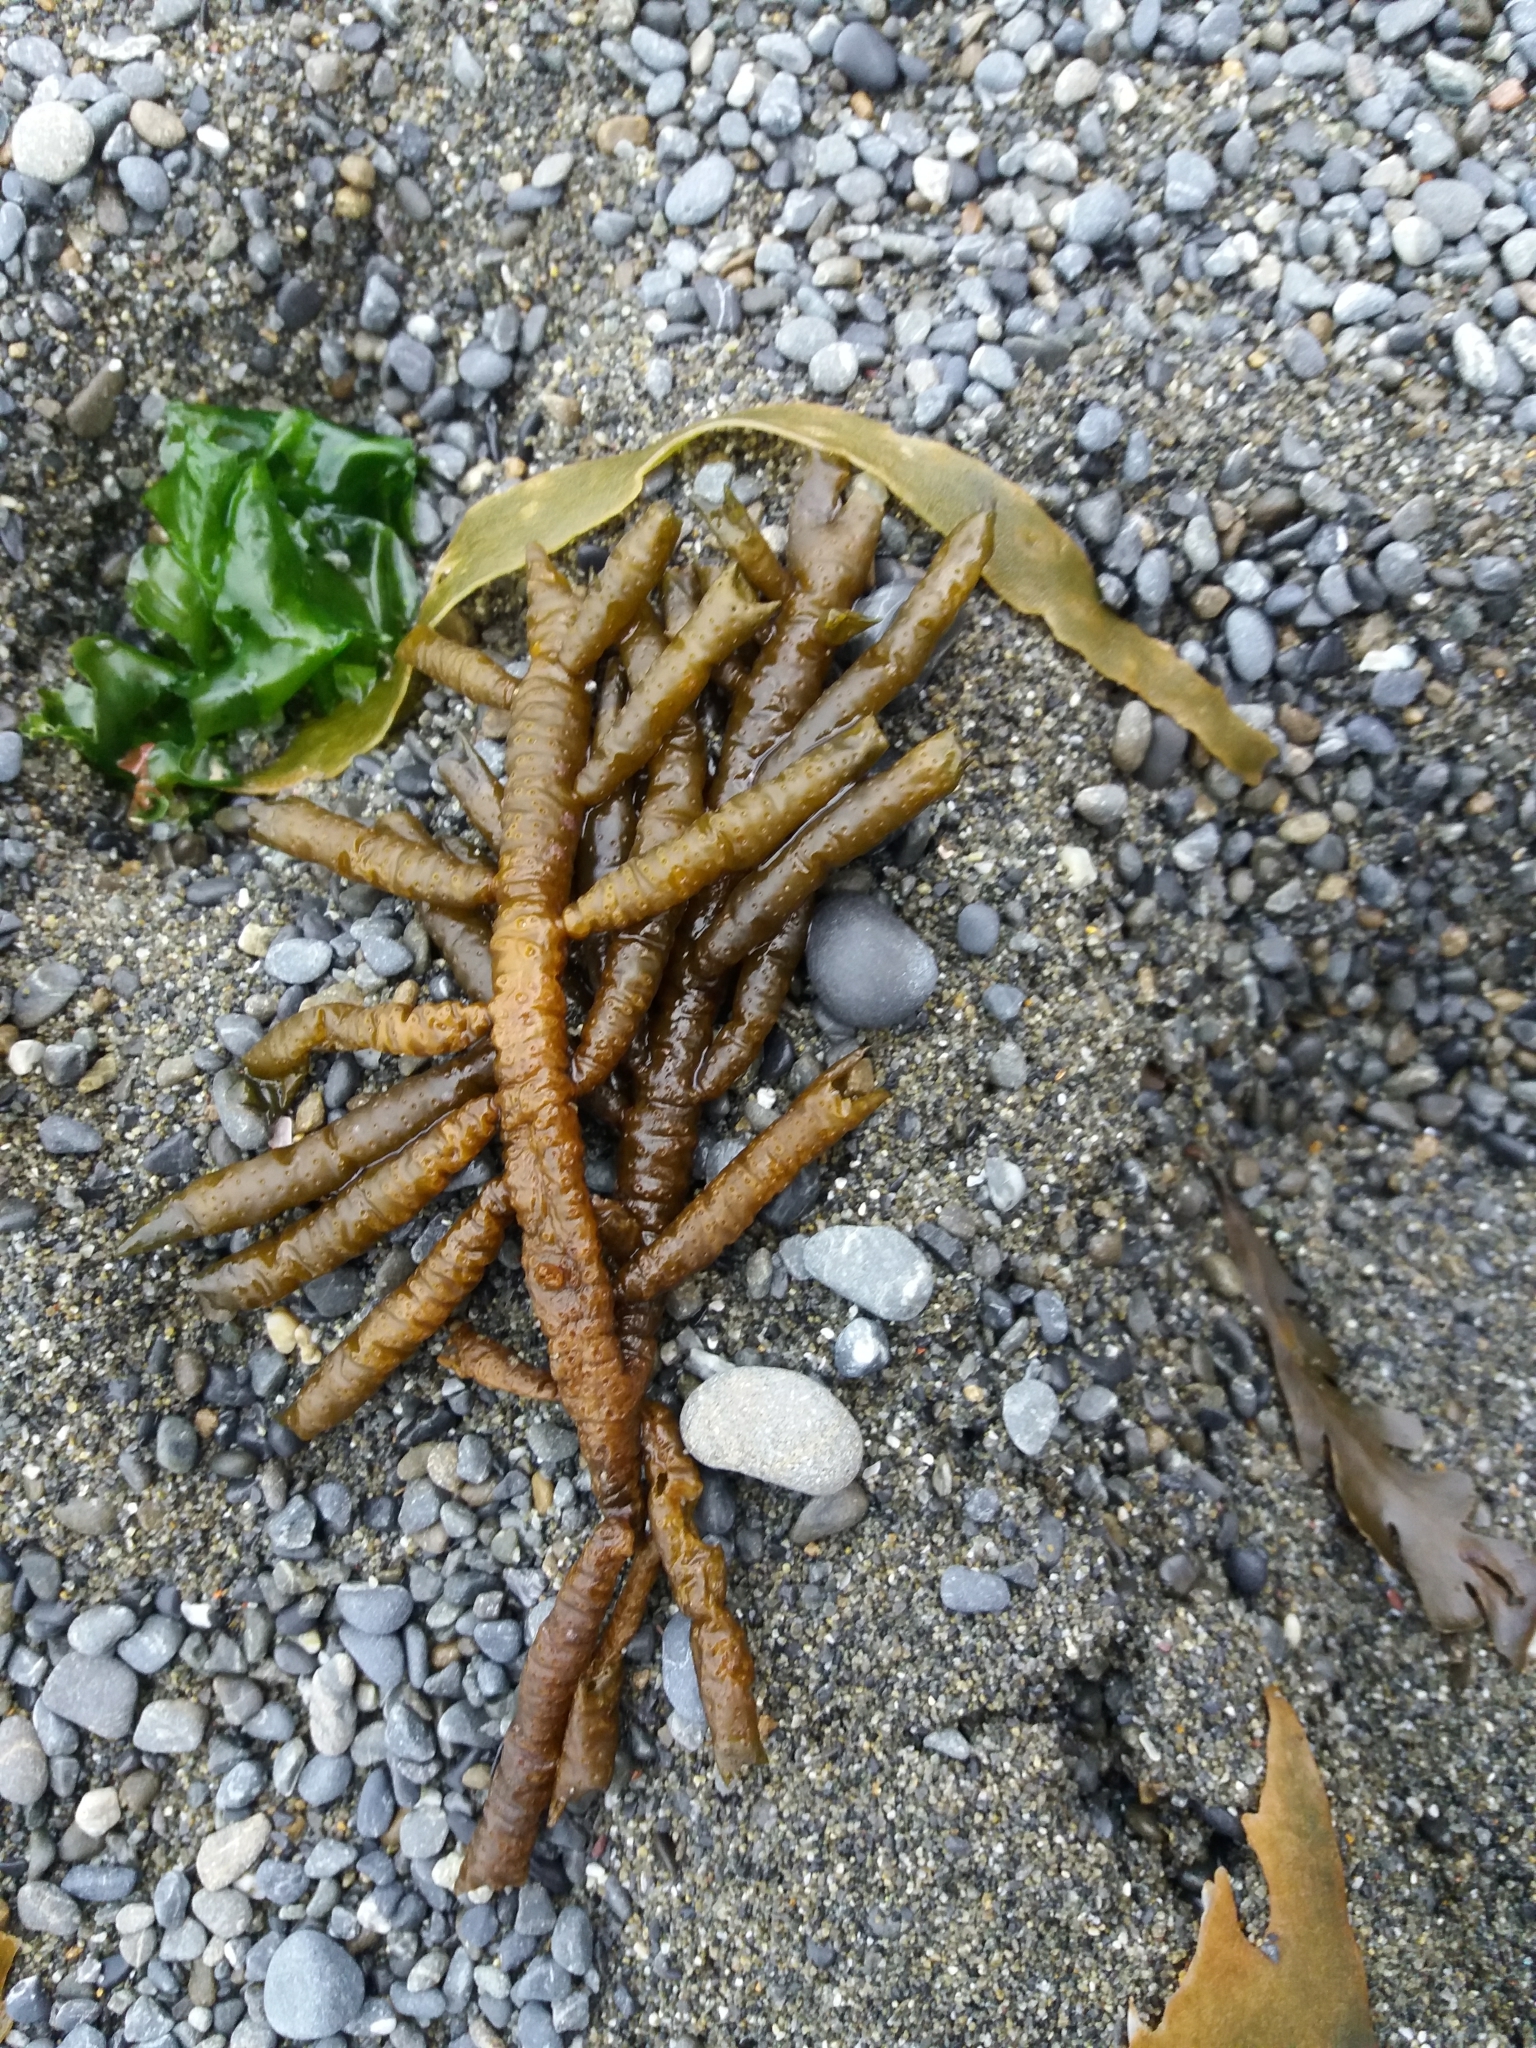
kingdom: Chromista
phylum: Ochrophyta
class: Phaeophyceae
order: Scytothamnales
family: Splachnidiaceae
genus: Splachnidium
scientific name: Splachnidium rugosum
